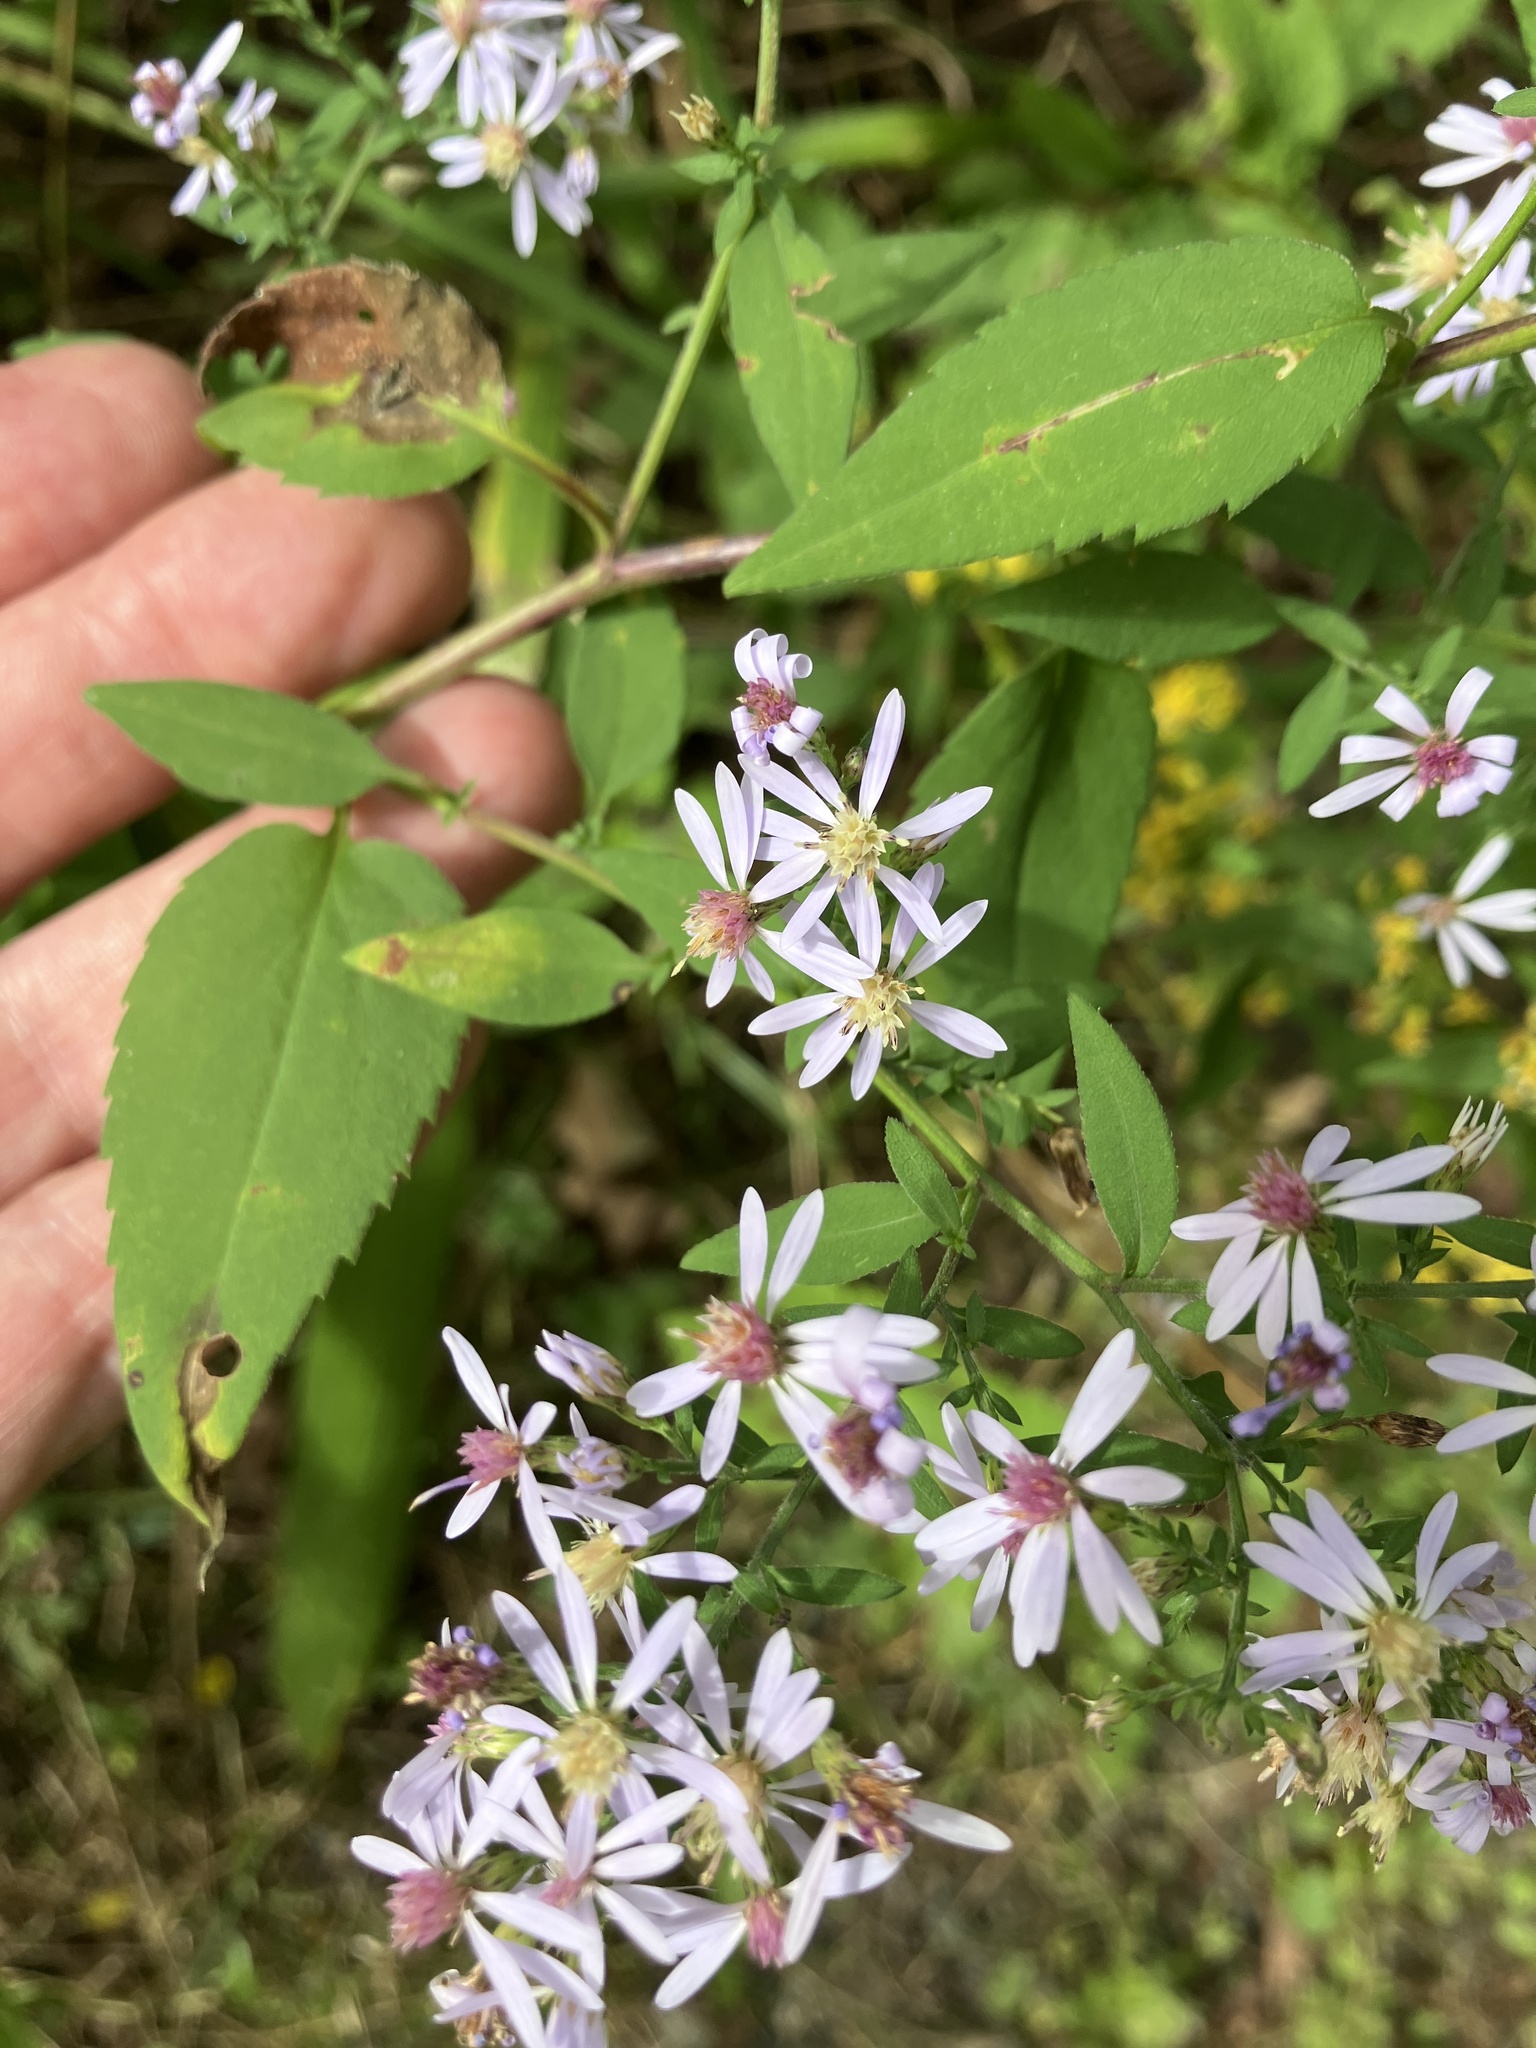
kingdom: Plantae
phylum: Tracheophyta
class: Magnoliopsida
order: Asterales
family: Asteraceae
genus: Symphyotrichum
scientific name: Symphyotrichum cordifolium
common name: Beeweed
